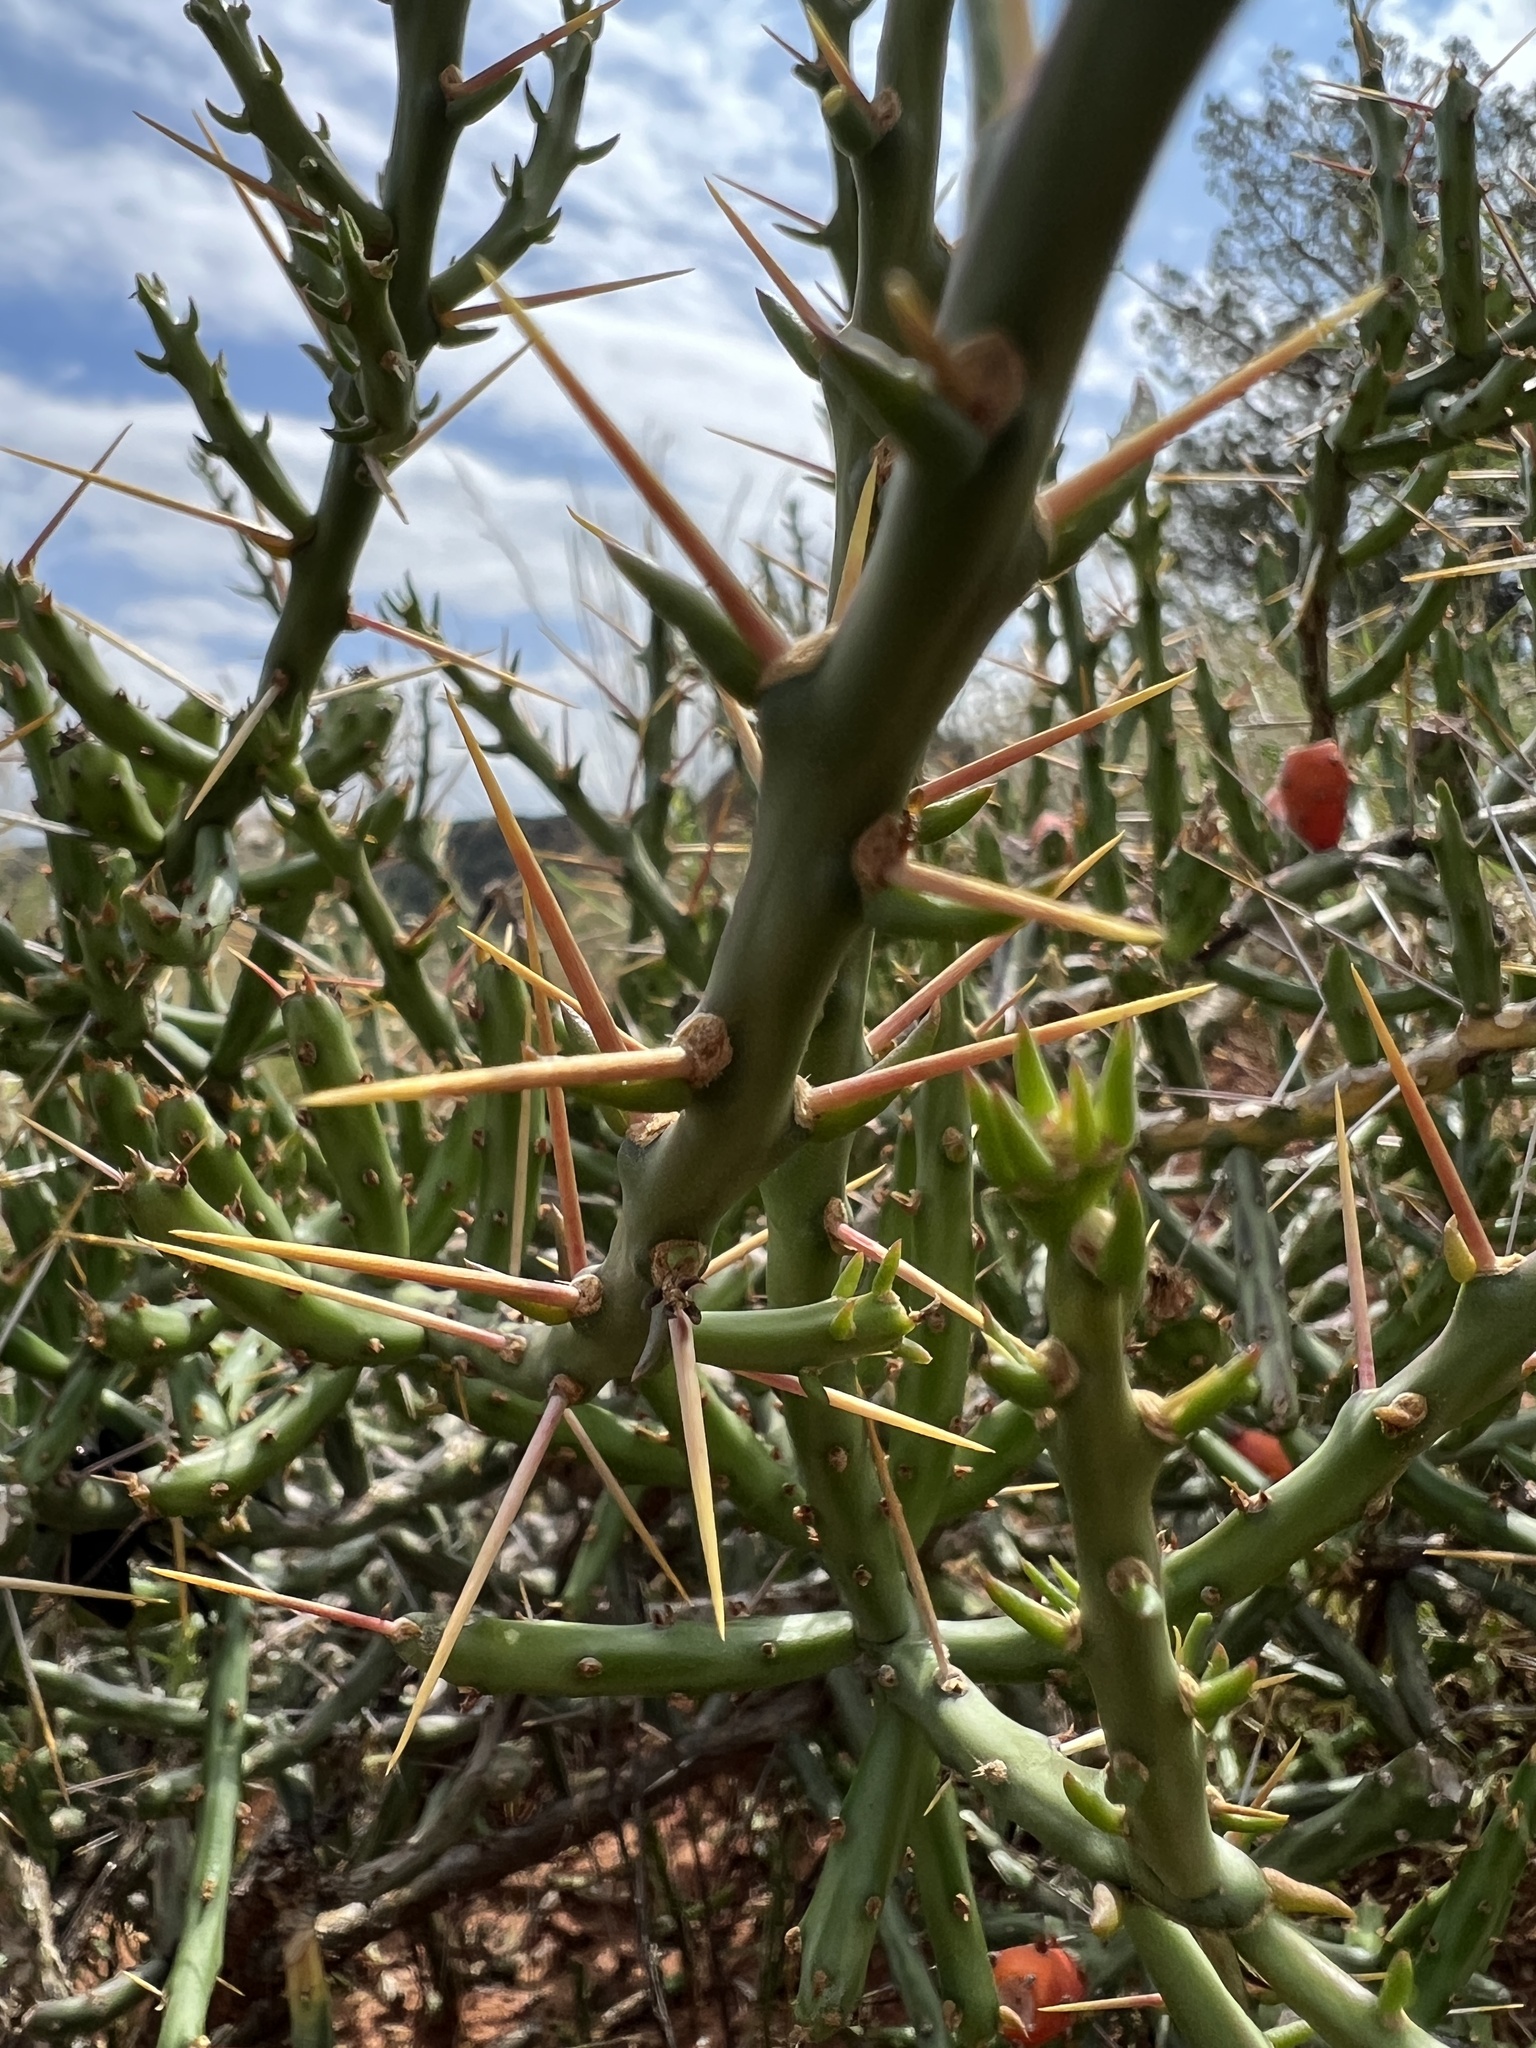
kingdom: Plantae
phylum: Tracheophyta
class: Magnoliopsida
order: Caryophyllales
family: Cactaceae
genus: Cylindropuntia
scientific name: Cylindropuntia leptocaulis
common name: Christmas cactus
